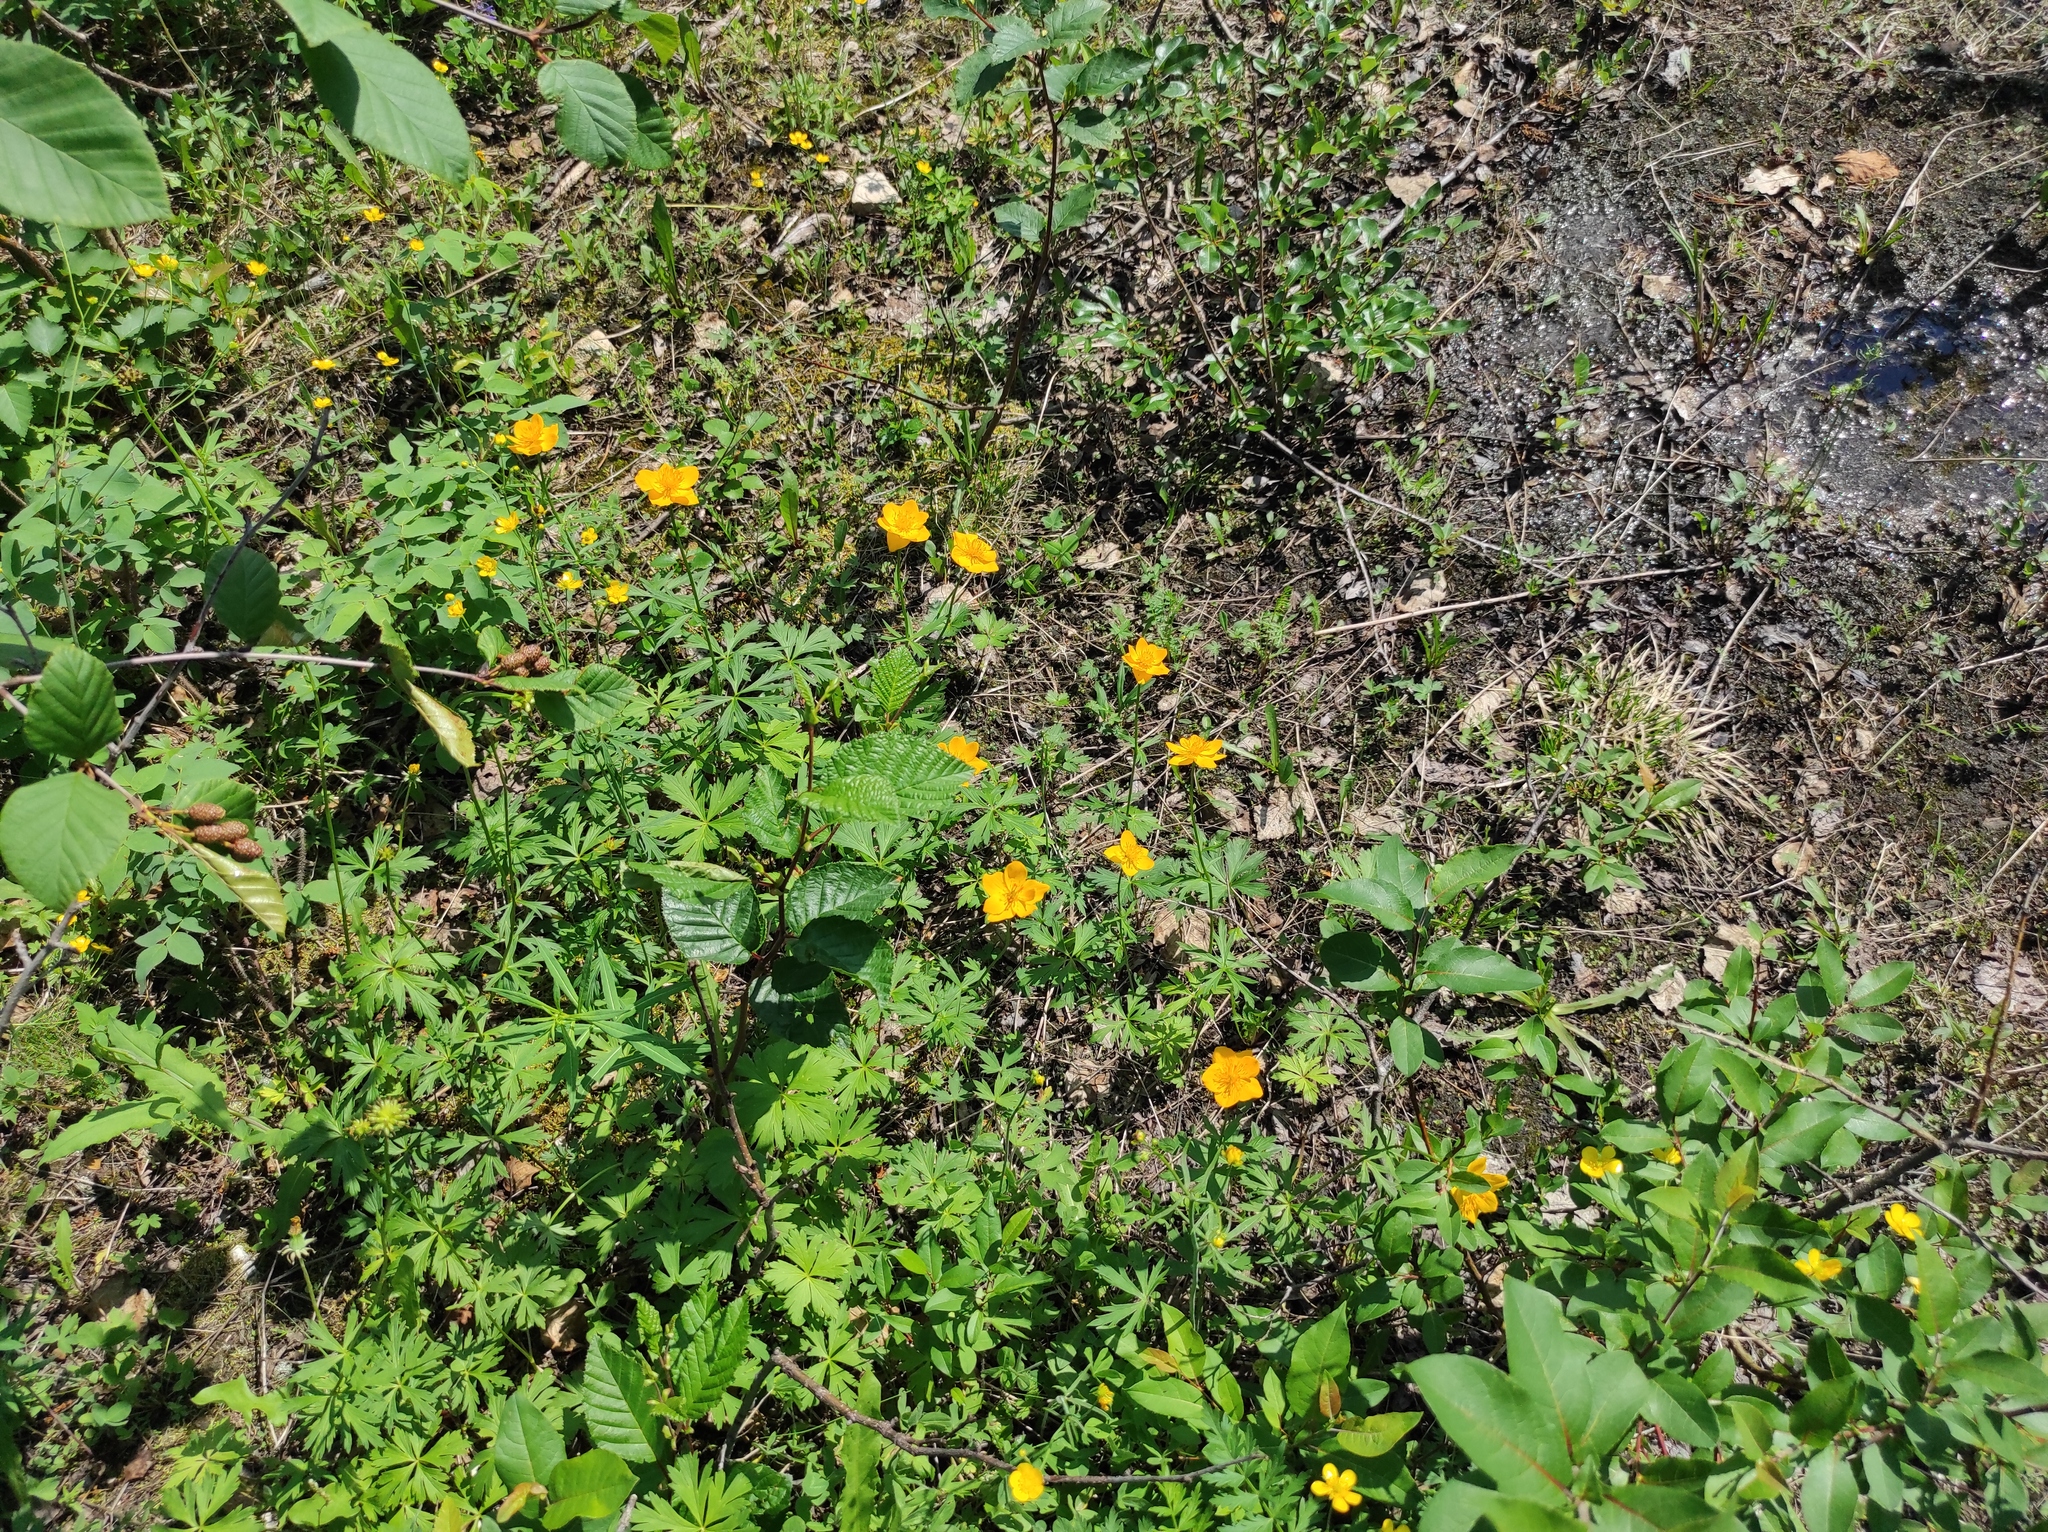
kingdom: Plantae
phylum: Tracheophyta
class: Magnoliopsida
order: Ranunculales
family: Ranunculaceae
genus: Trollius
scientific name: Trollius sibiricus
